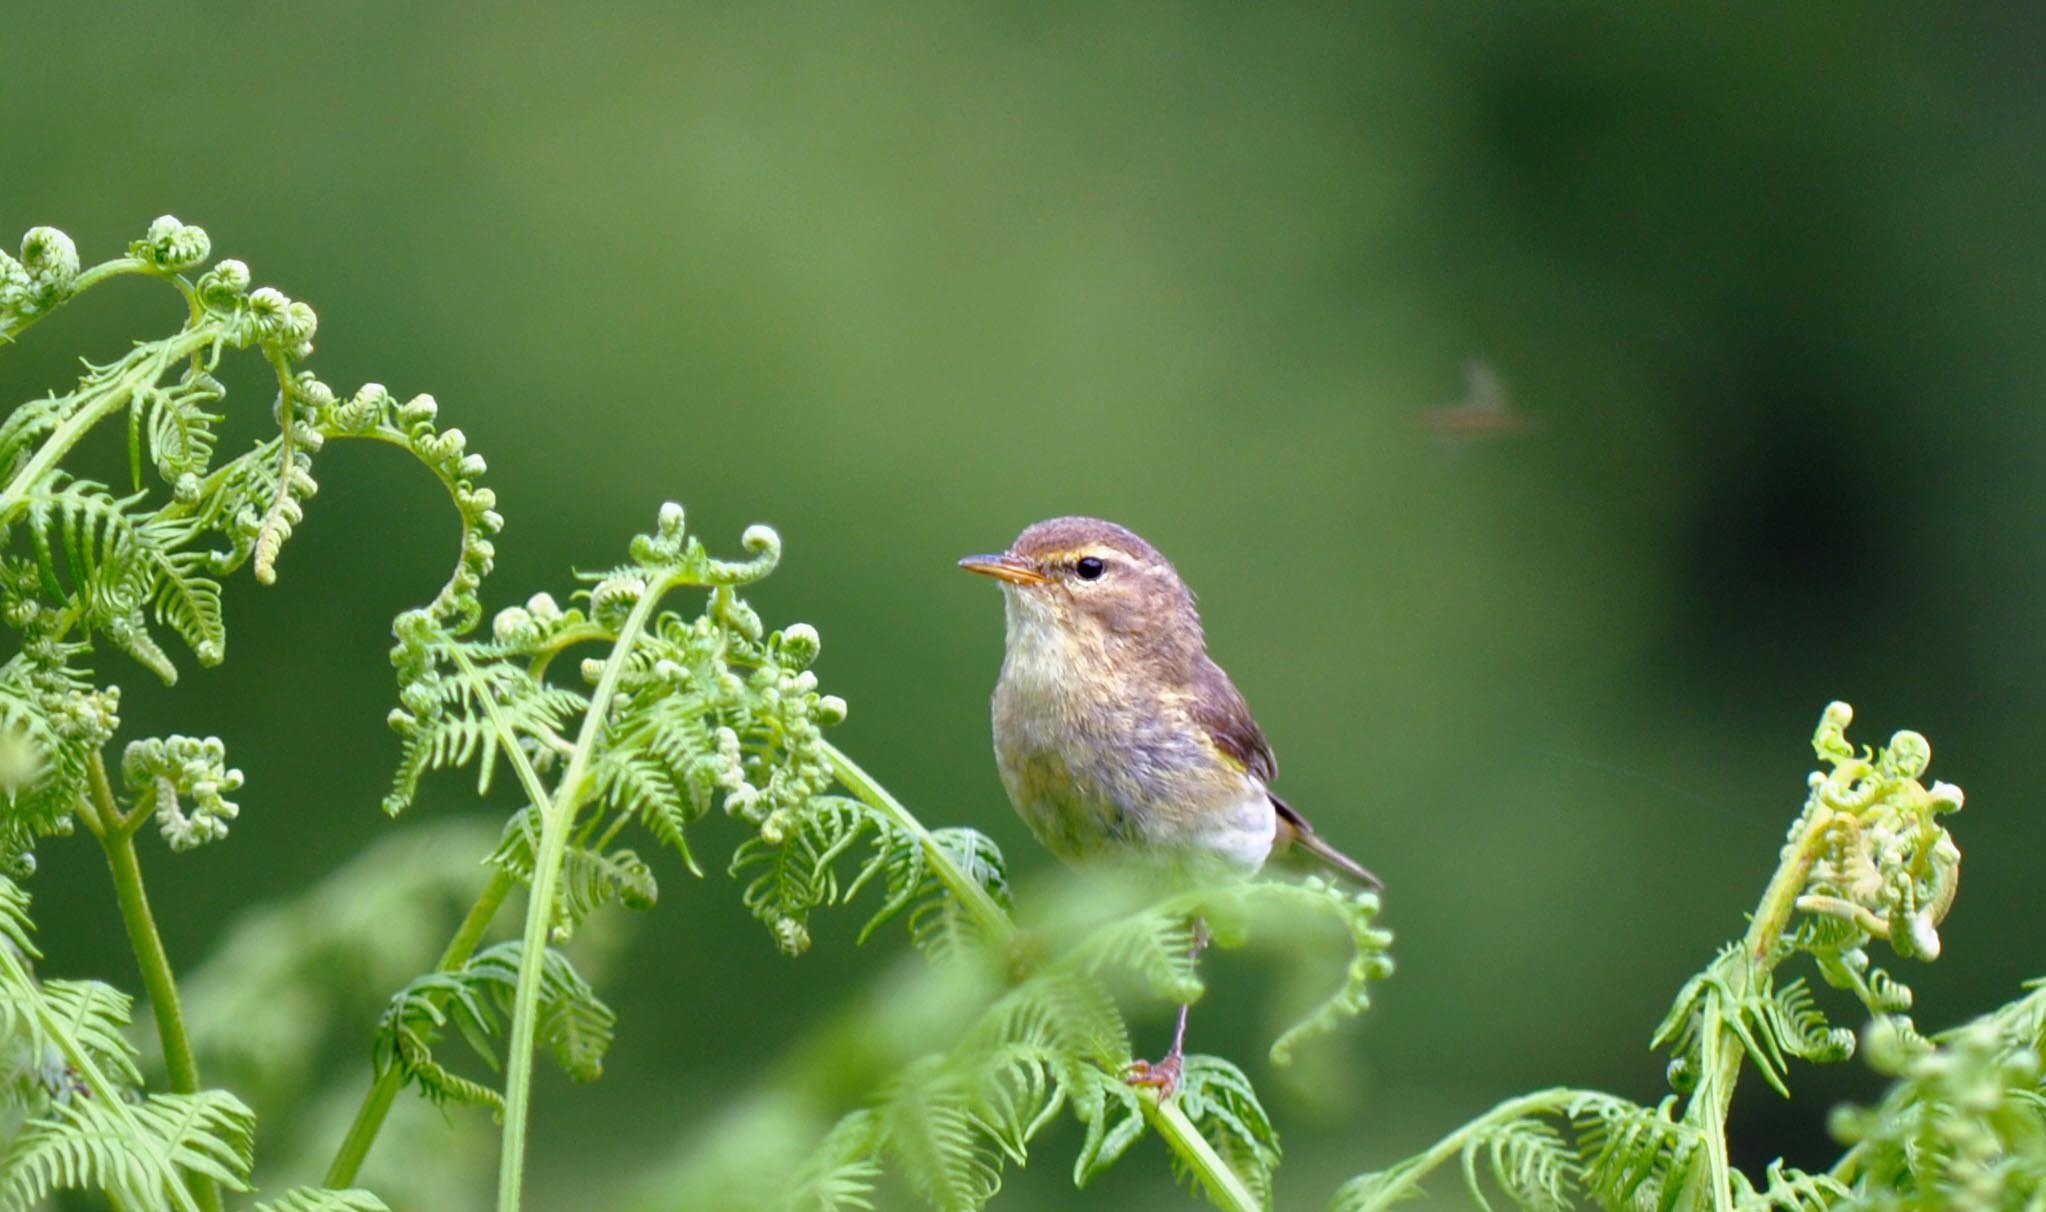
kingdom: Animalia
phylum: Chordata
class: Aves
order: Passeriformes
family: Phylloscopidae
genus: Phylloscopus
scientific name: Phylloscopus collybita
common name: Common chiffchaff
